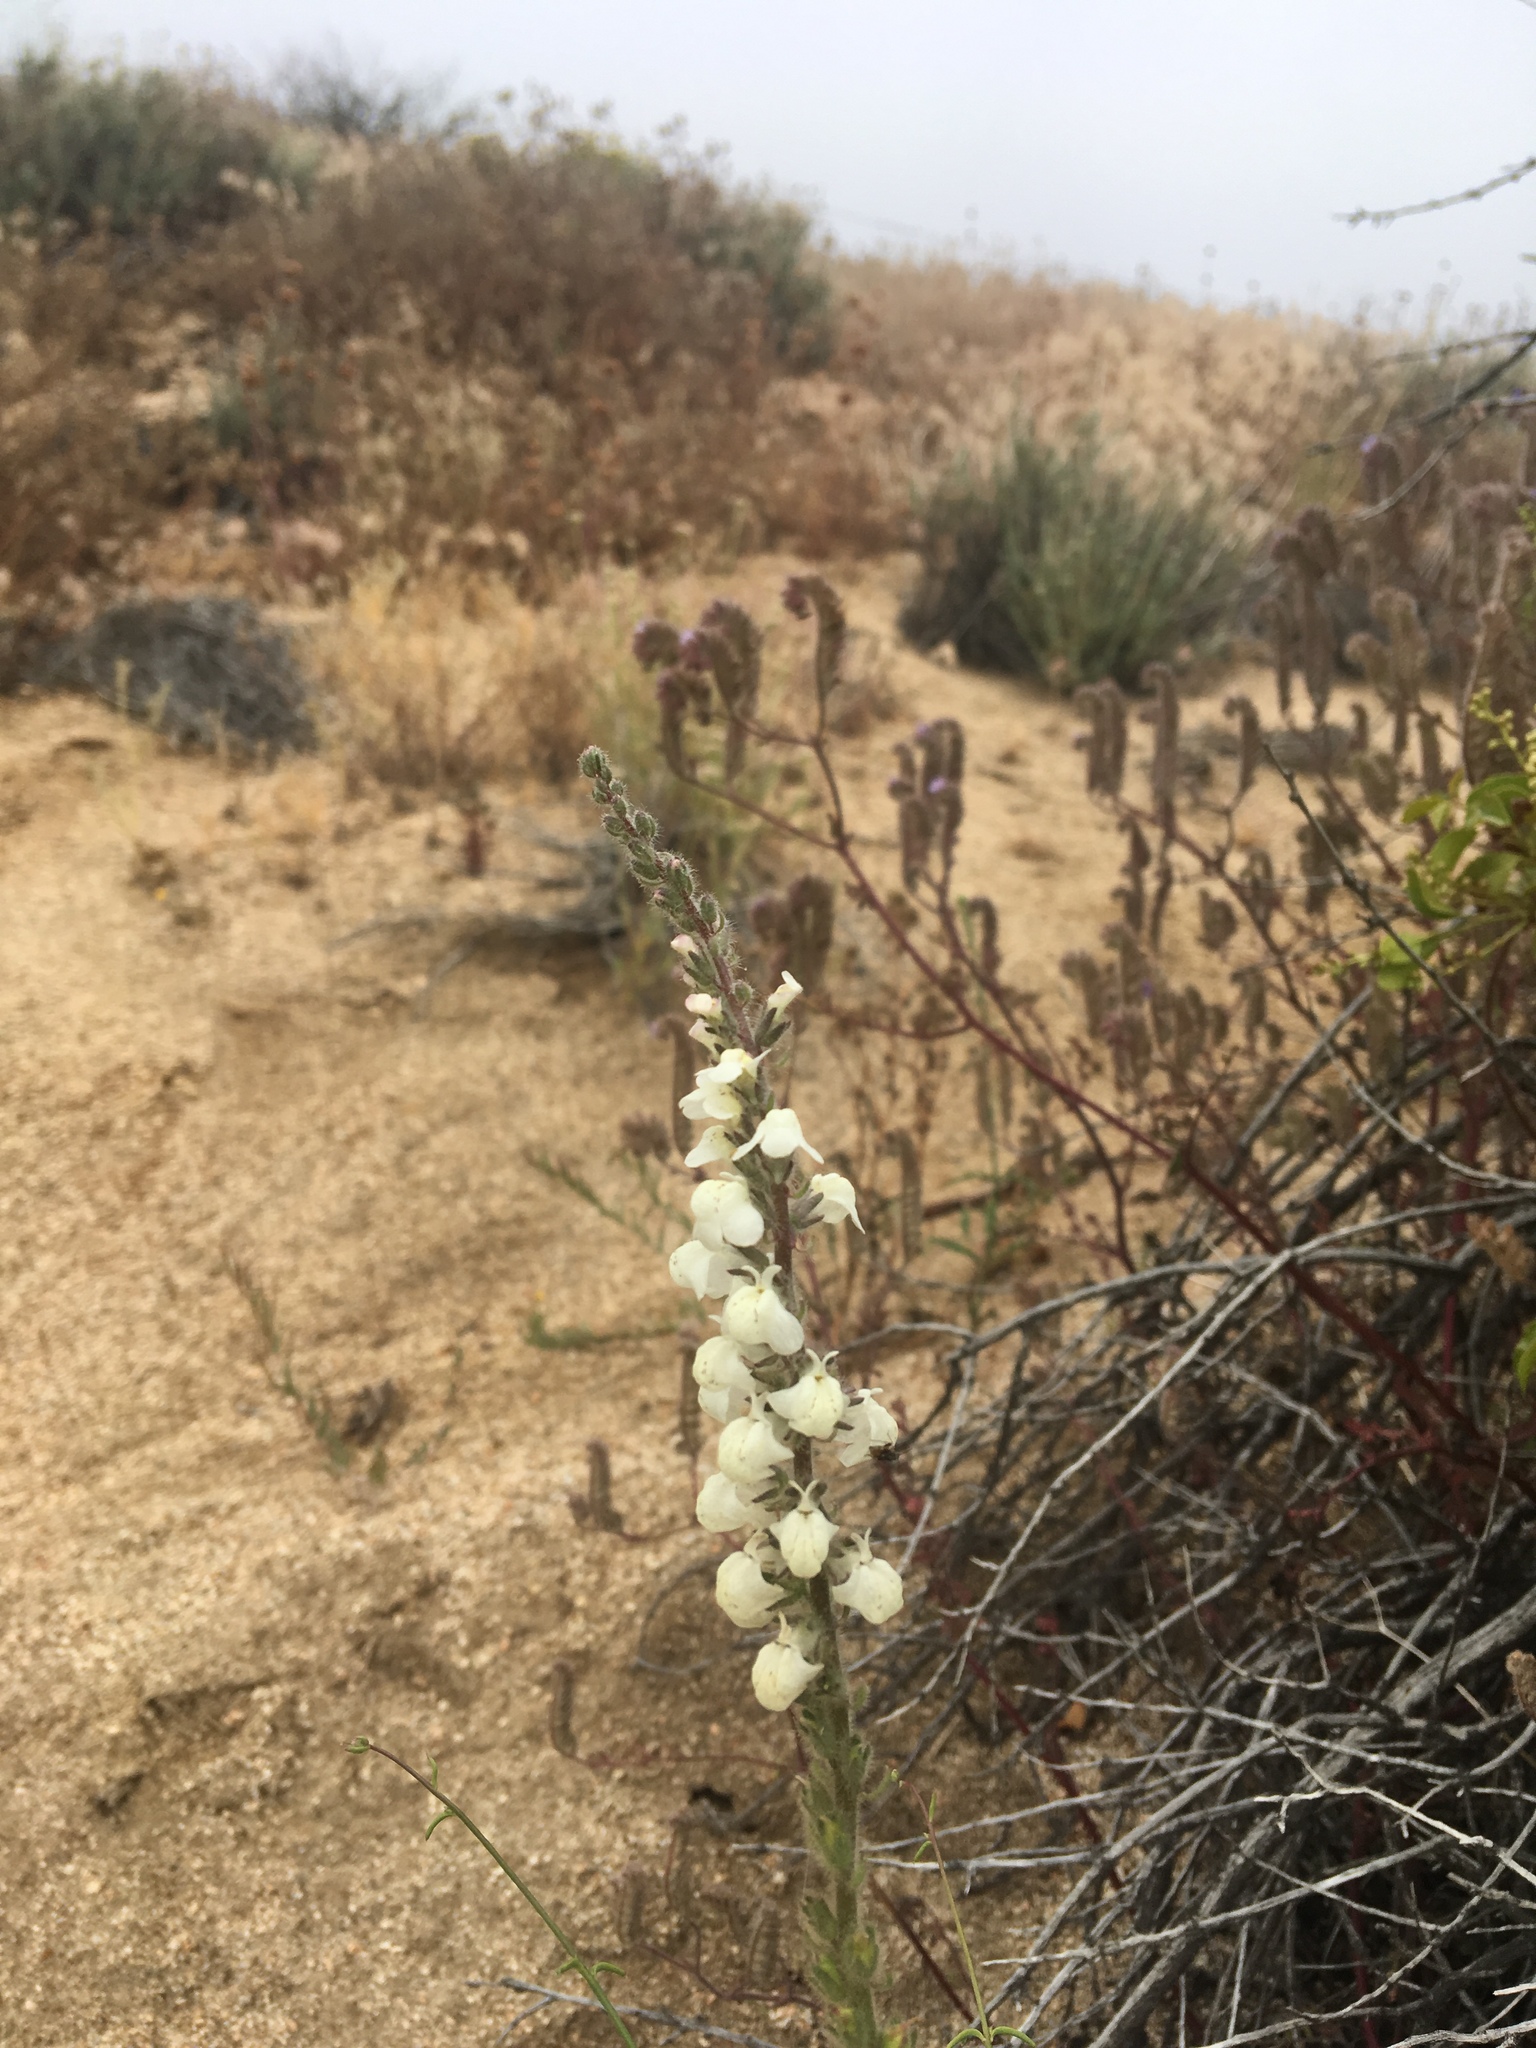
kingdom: Plantae
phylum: Tracheophyta
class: Magnoliopsida
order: Lamiales
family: Plantaginaceae
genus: Sairocarpus
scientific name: Sairocarpus coulterianus
